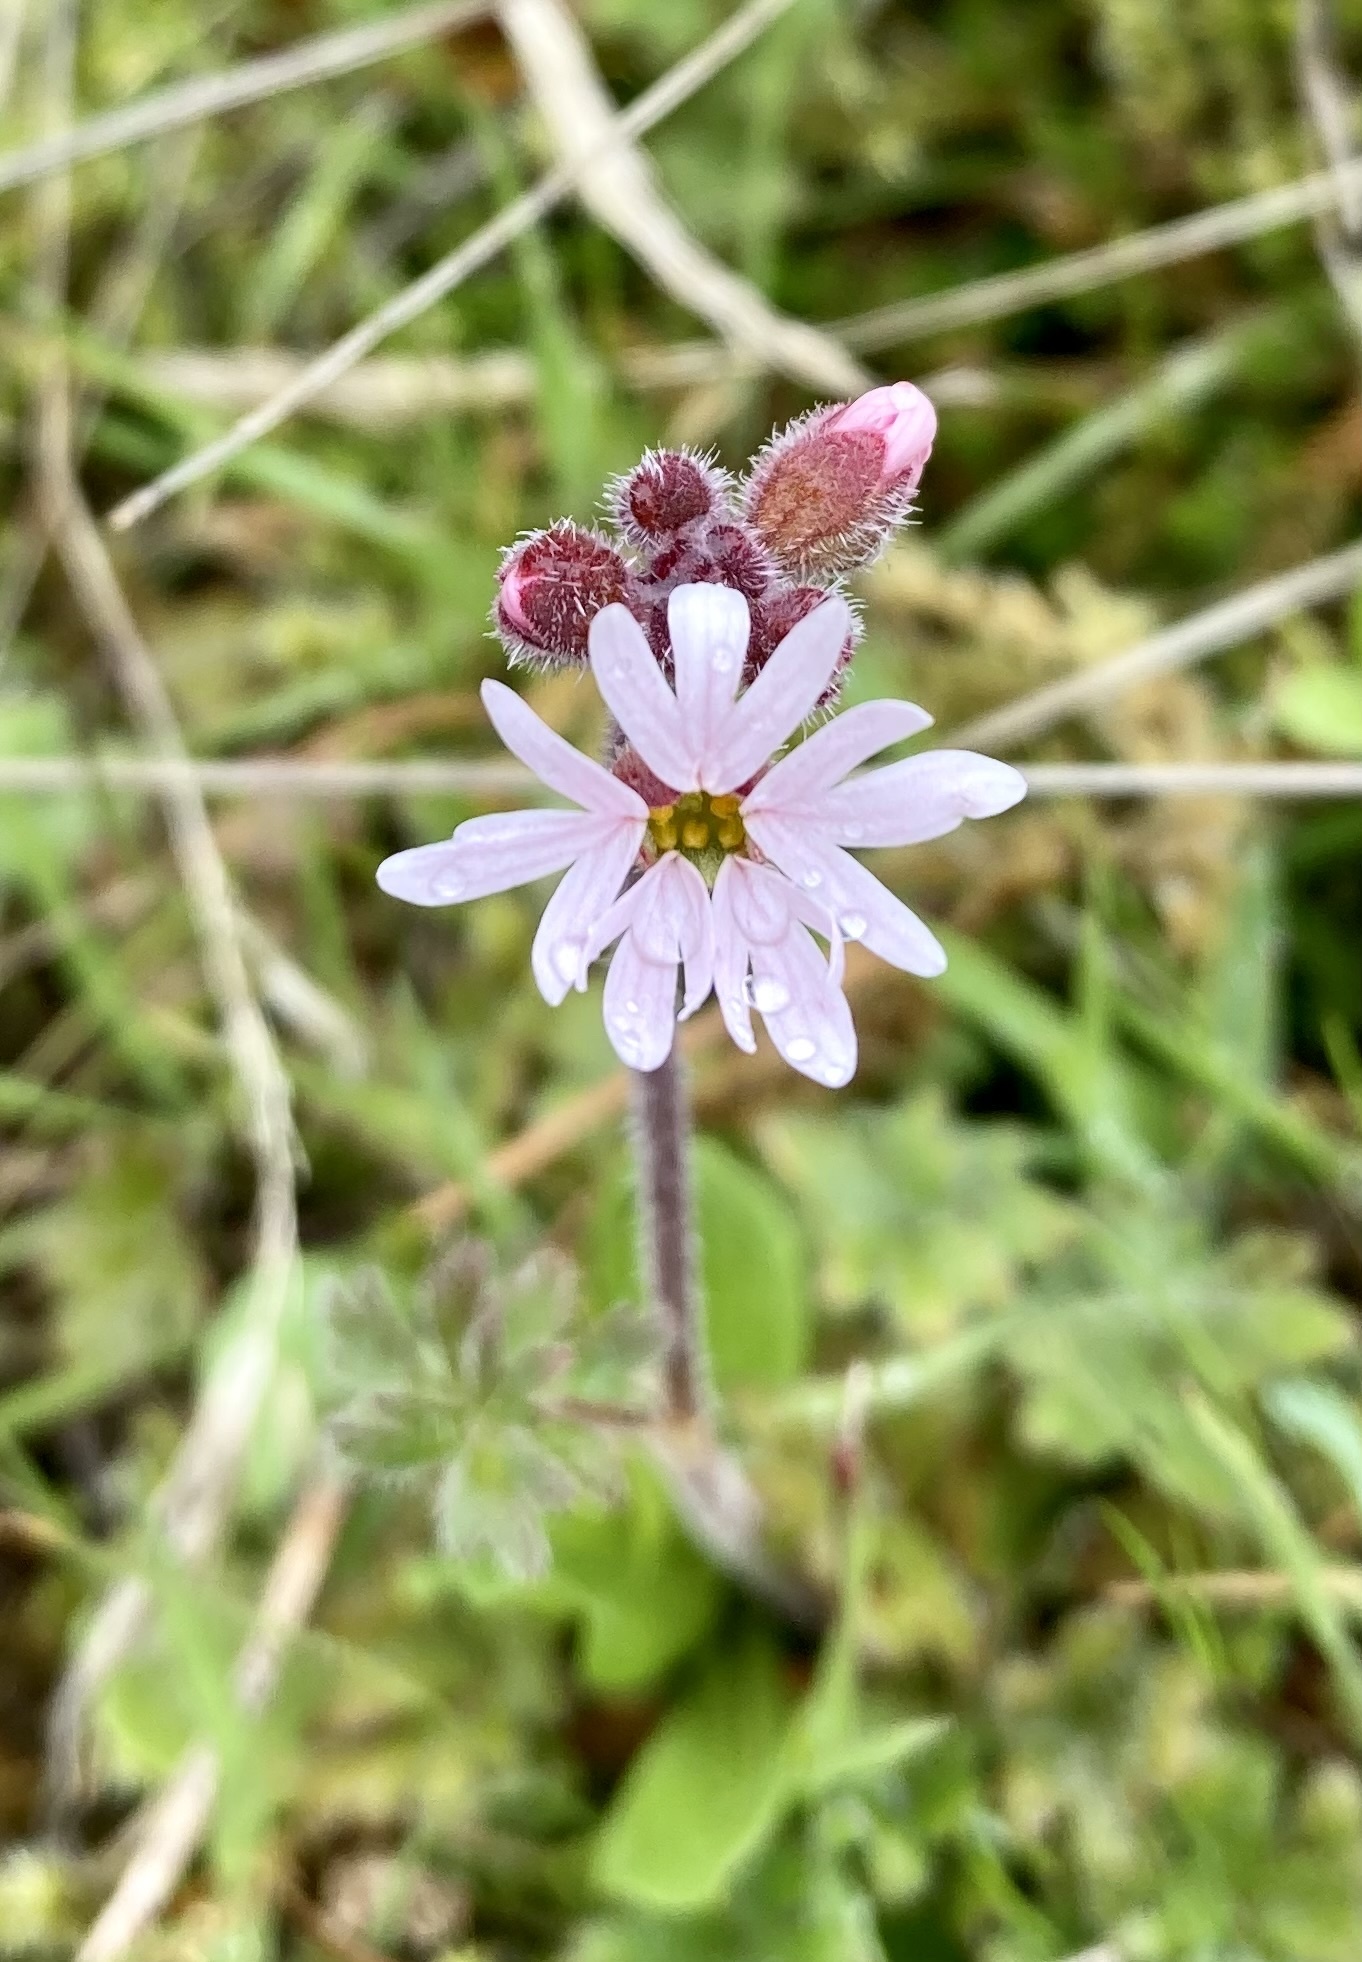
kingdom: Plantae
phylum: Tracheophyta
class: Magnoliopsida
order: Saxifragales
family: Saxifragaceae
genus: Lithophragma
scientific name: Lithophragma parviflorum
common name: Small-flowered fringe-cup
